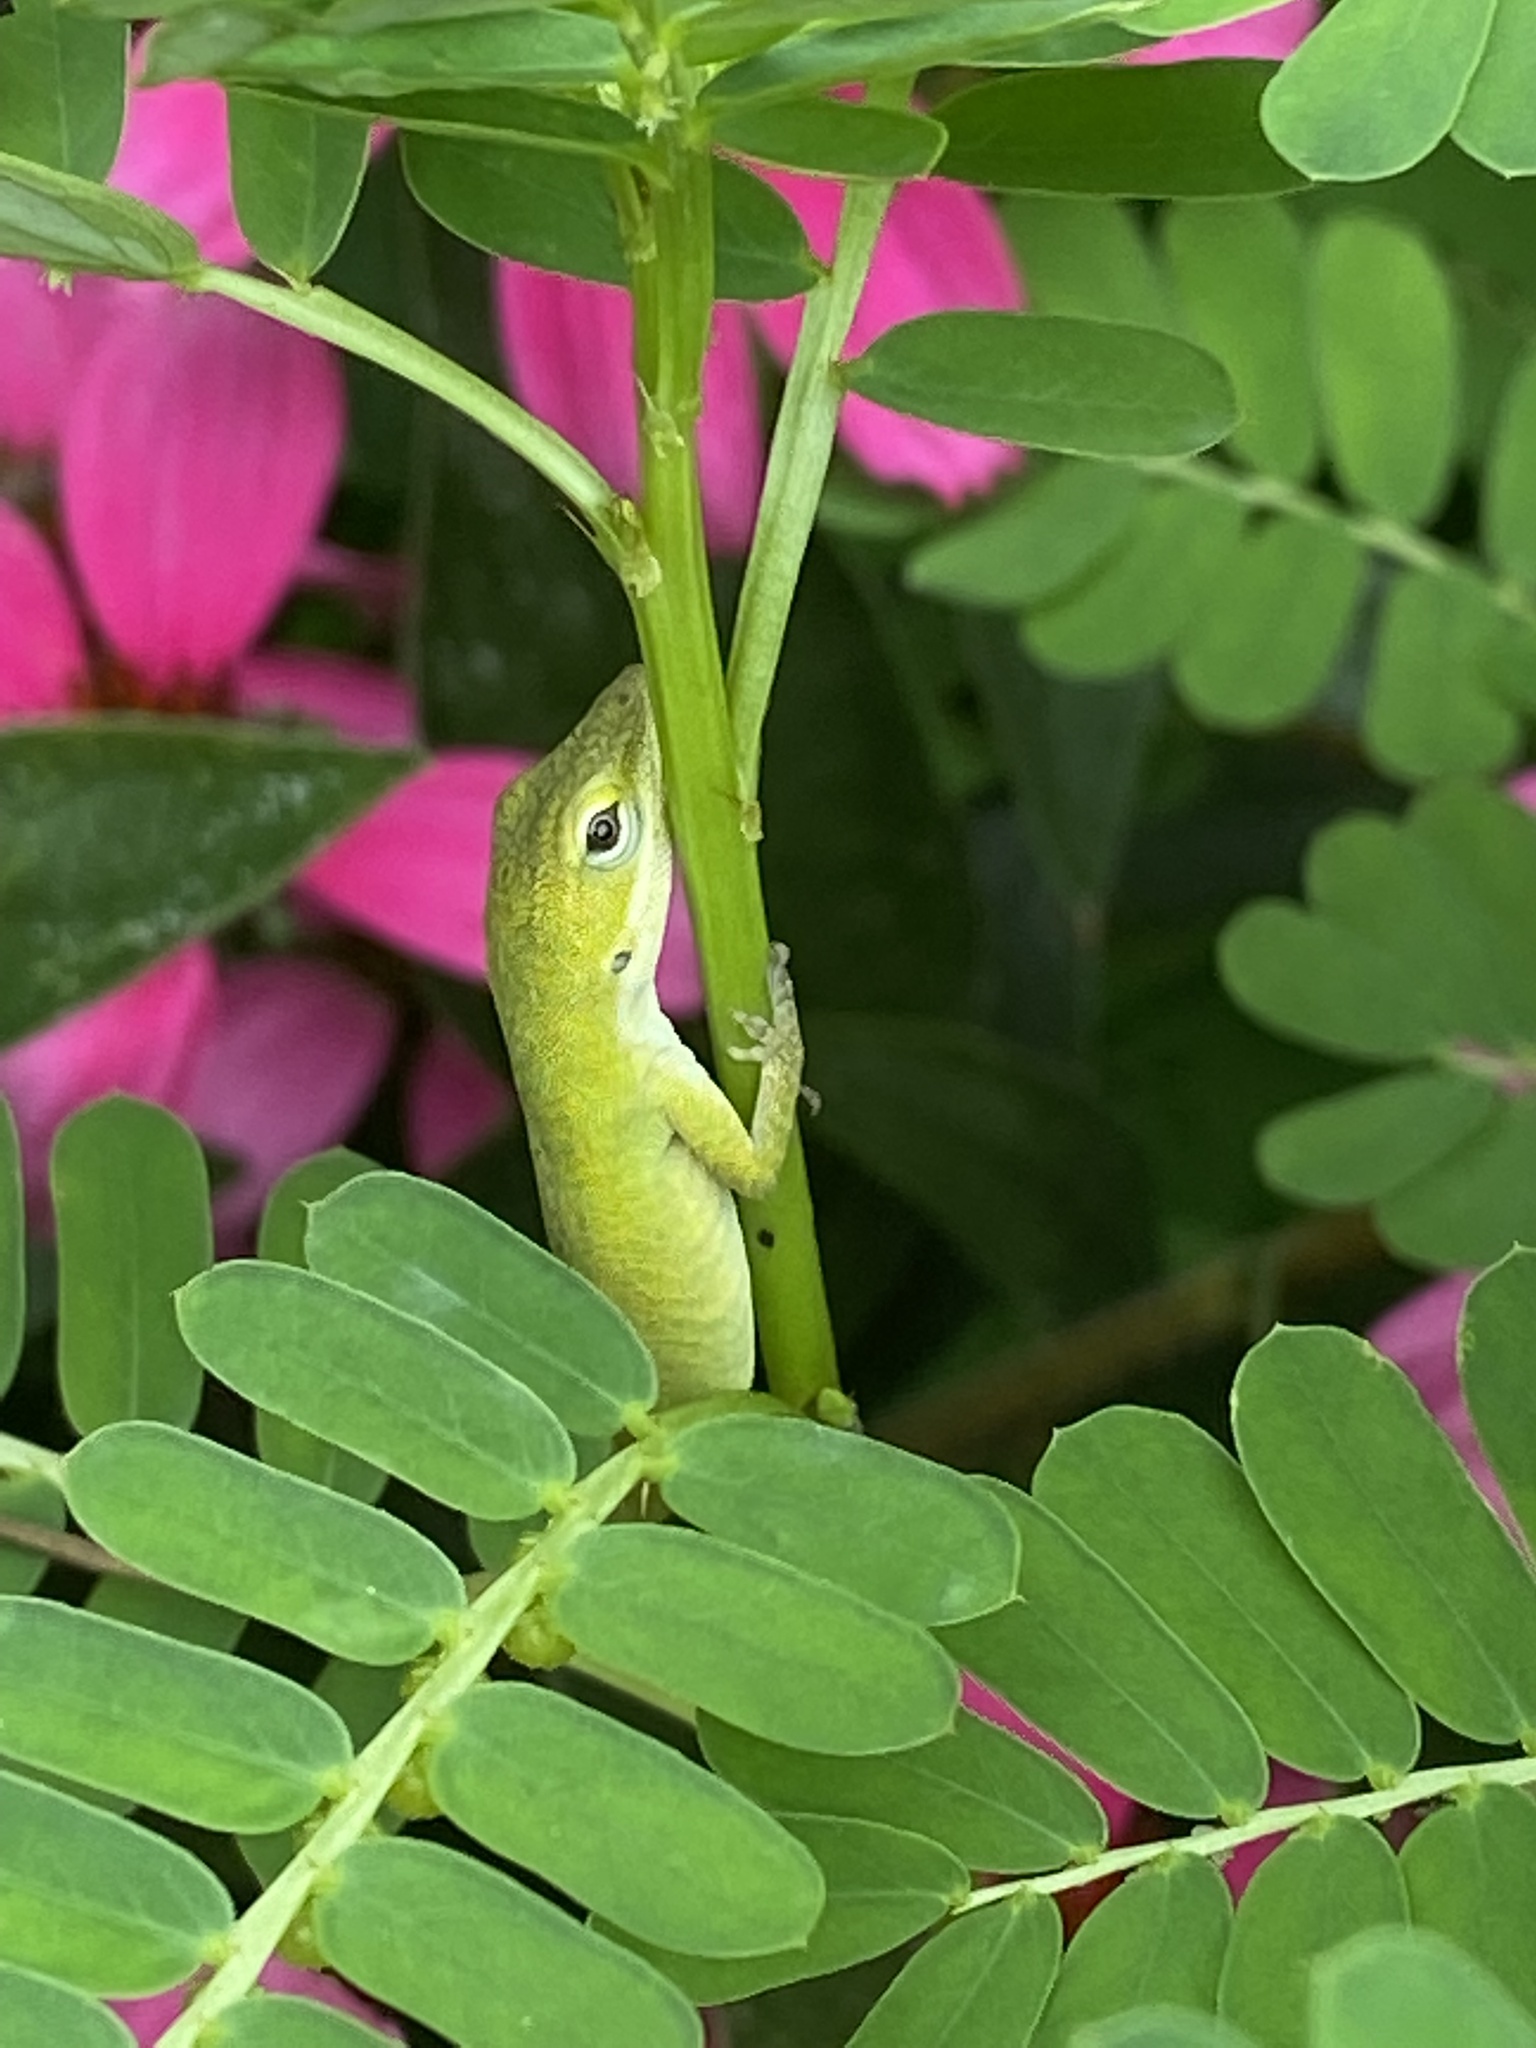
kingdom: Animalia
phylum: Chordata
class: Squamata
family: Dactyloidae
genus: Anolis
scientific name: Anolis carolinensis
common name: Green anole
